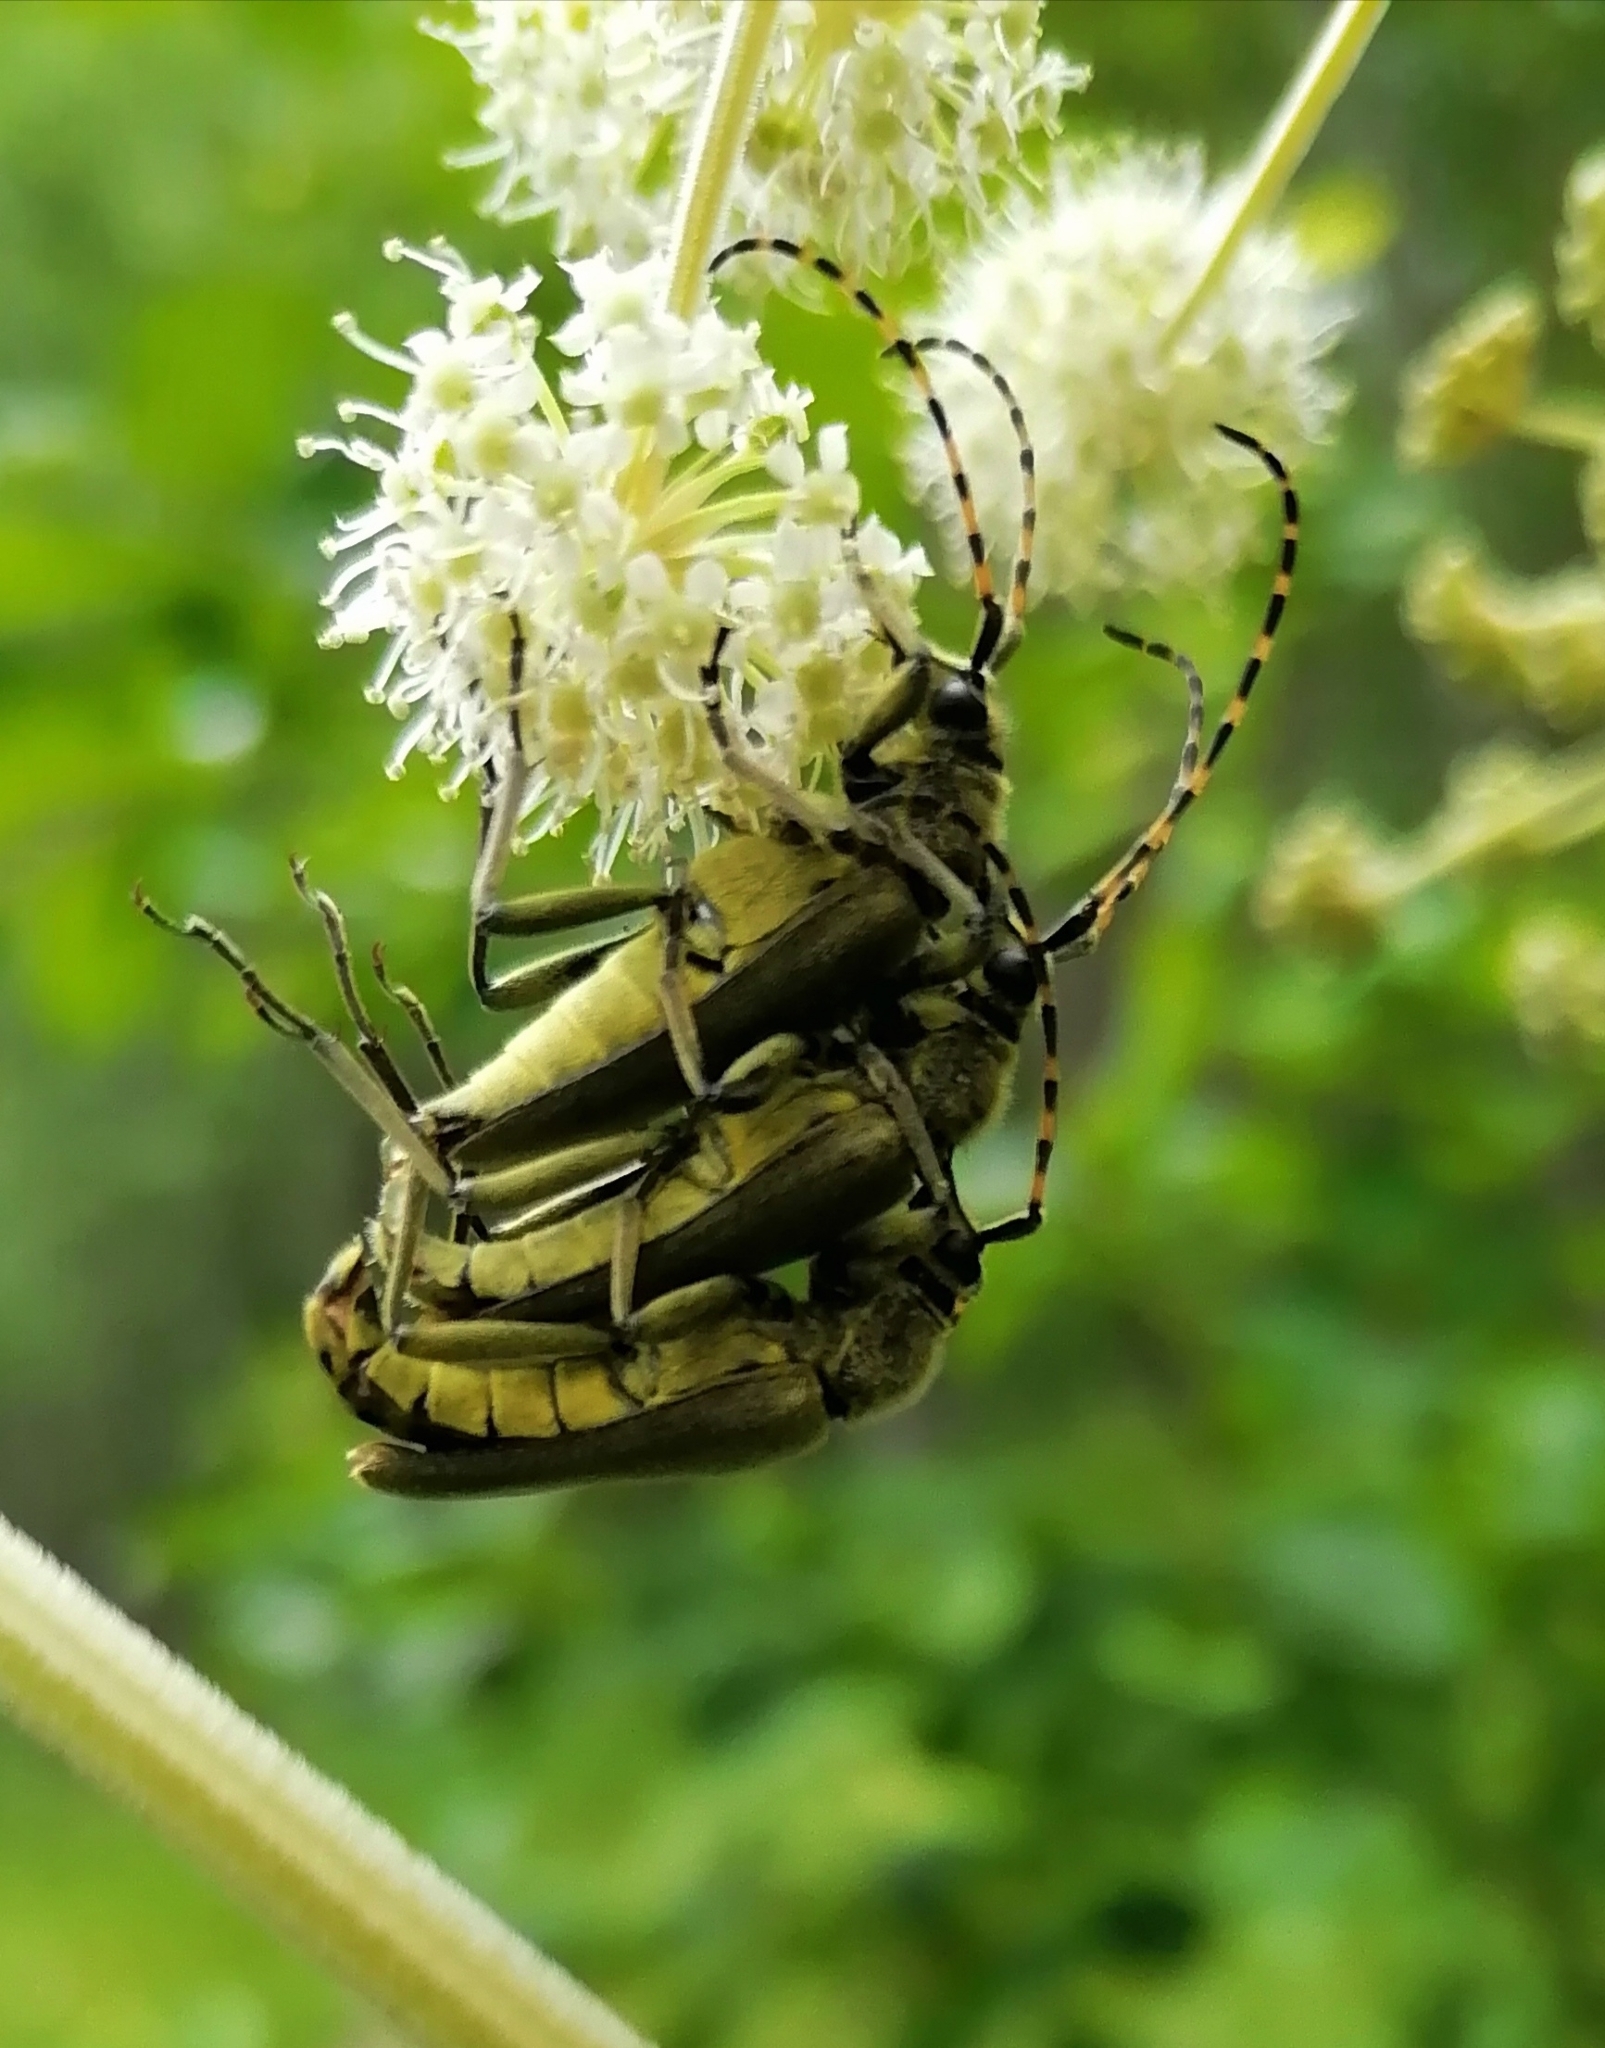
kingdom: Animalia
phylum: Arthropoda
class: Insecta
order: Coleoptera
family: Cerambycidae
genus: Lepturobosca
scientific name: Lepturobosca virens
